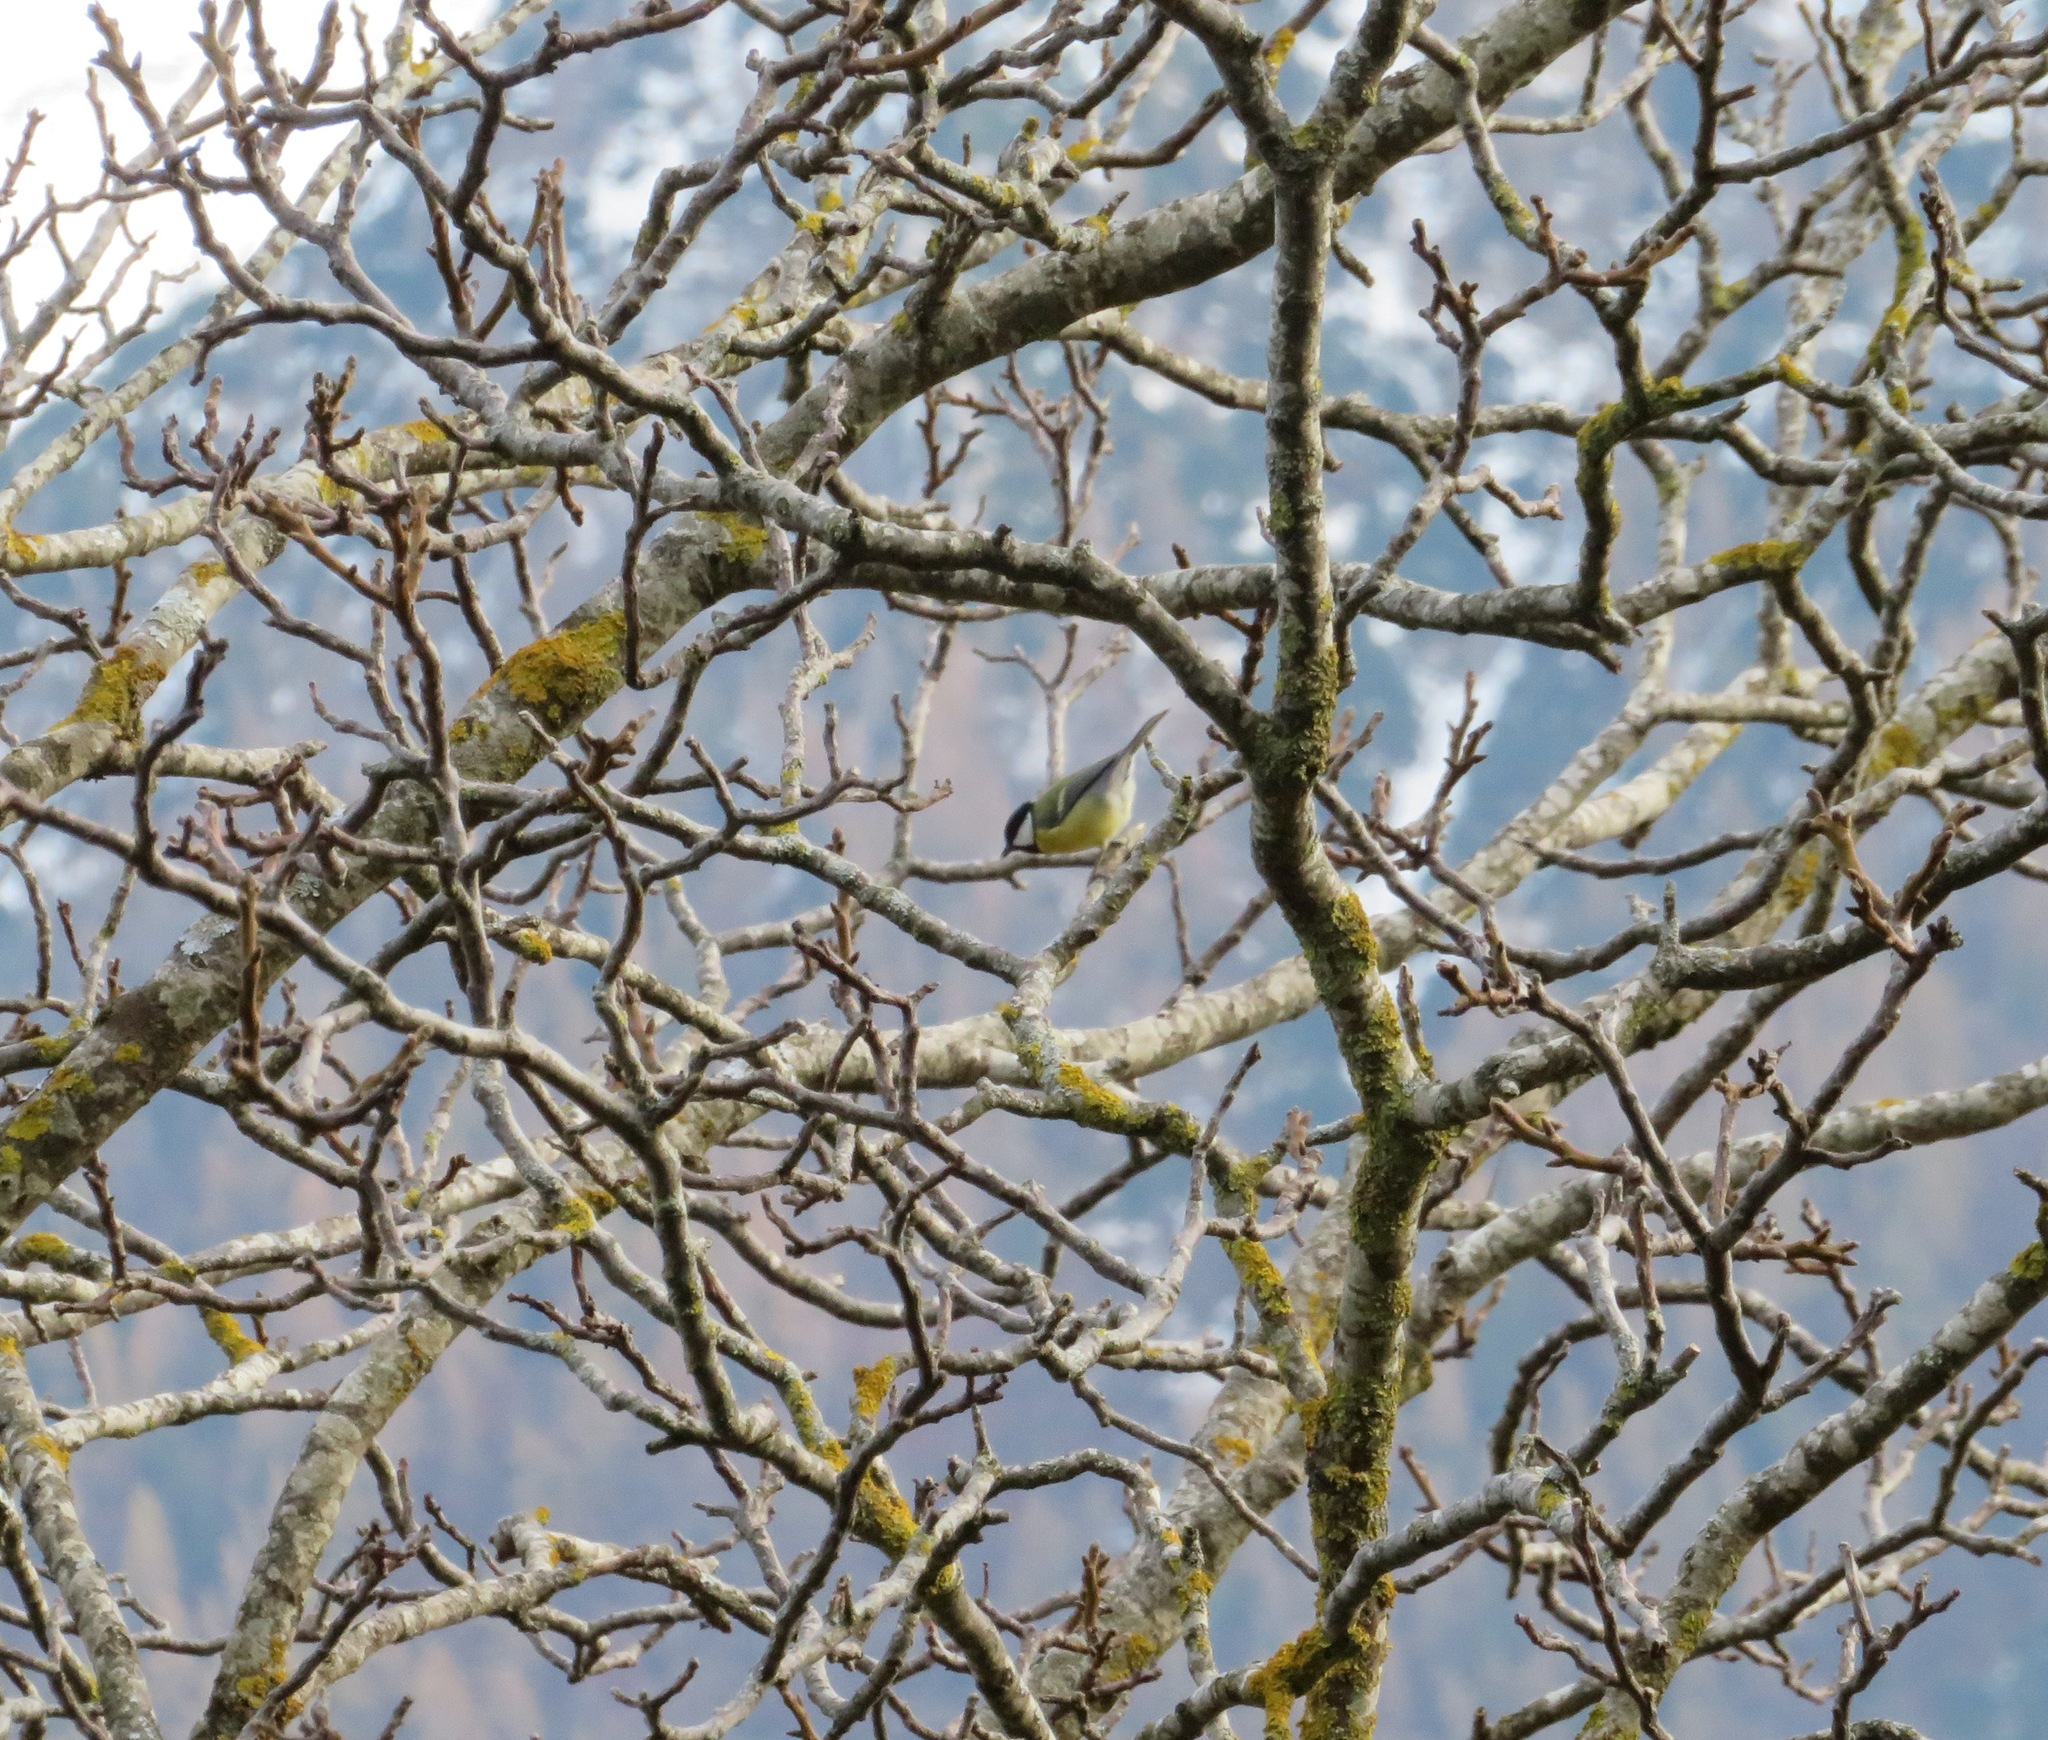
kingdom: Animalia
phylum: Chordata
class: Aves
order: Passeriformes
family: Paridae
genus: Parus
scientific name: Parus major
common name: Great tit
